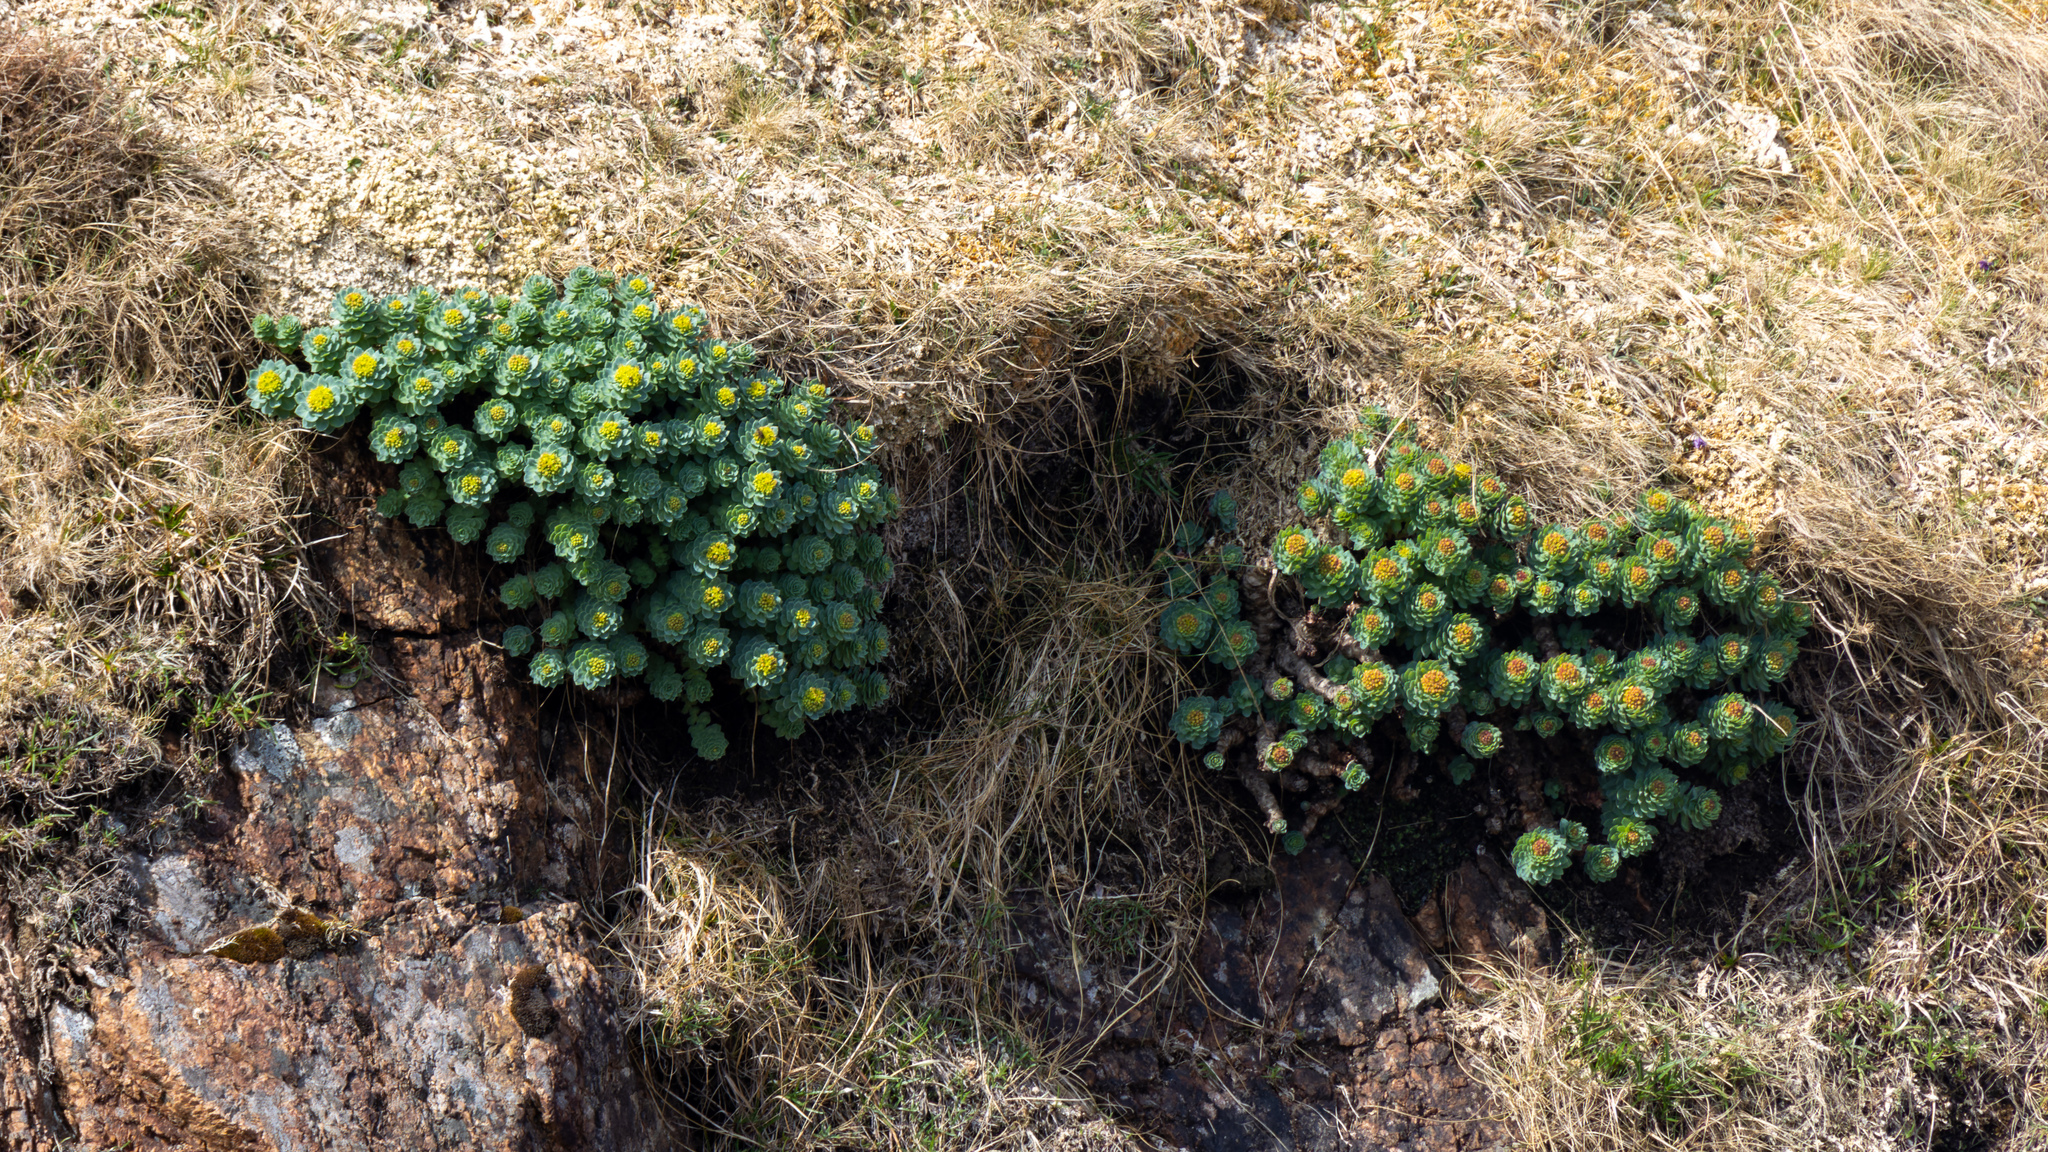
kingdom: Plantae
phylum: Tracheophyta
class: Magnoliopsida
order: Saxifragales
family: Crassulaceae
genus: Rhodiola
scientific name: Rhodiola rosea
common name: Roseroot
